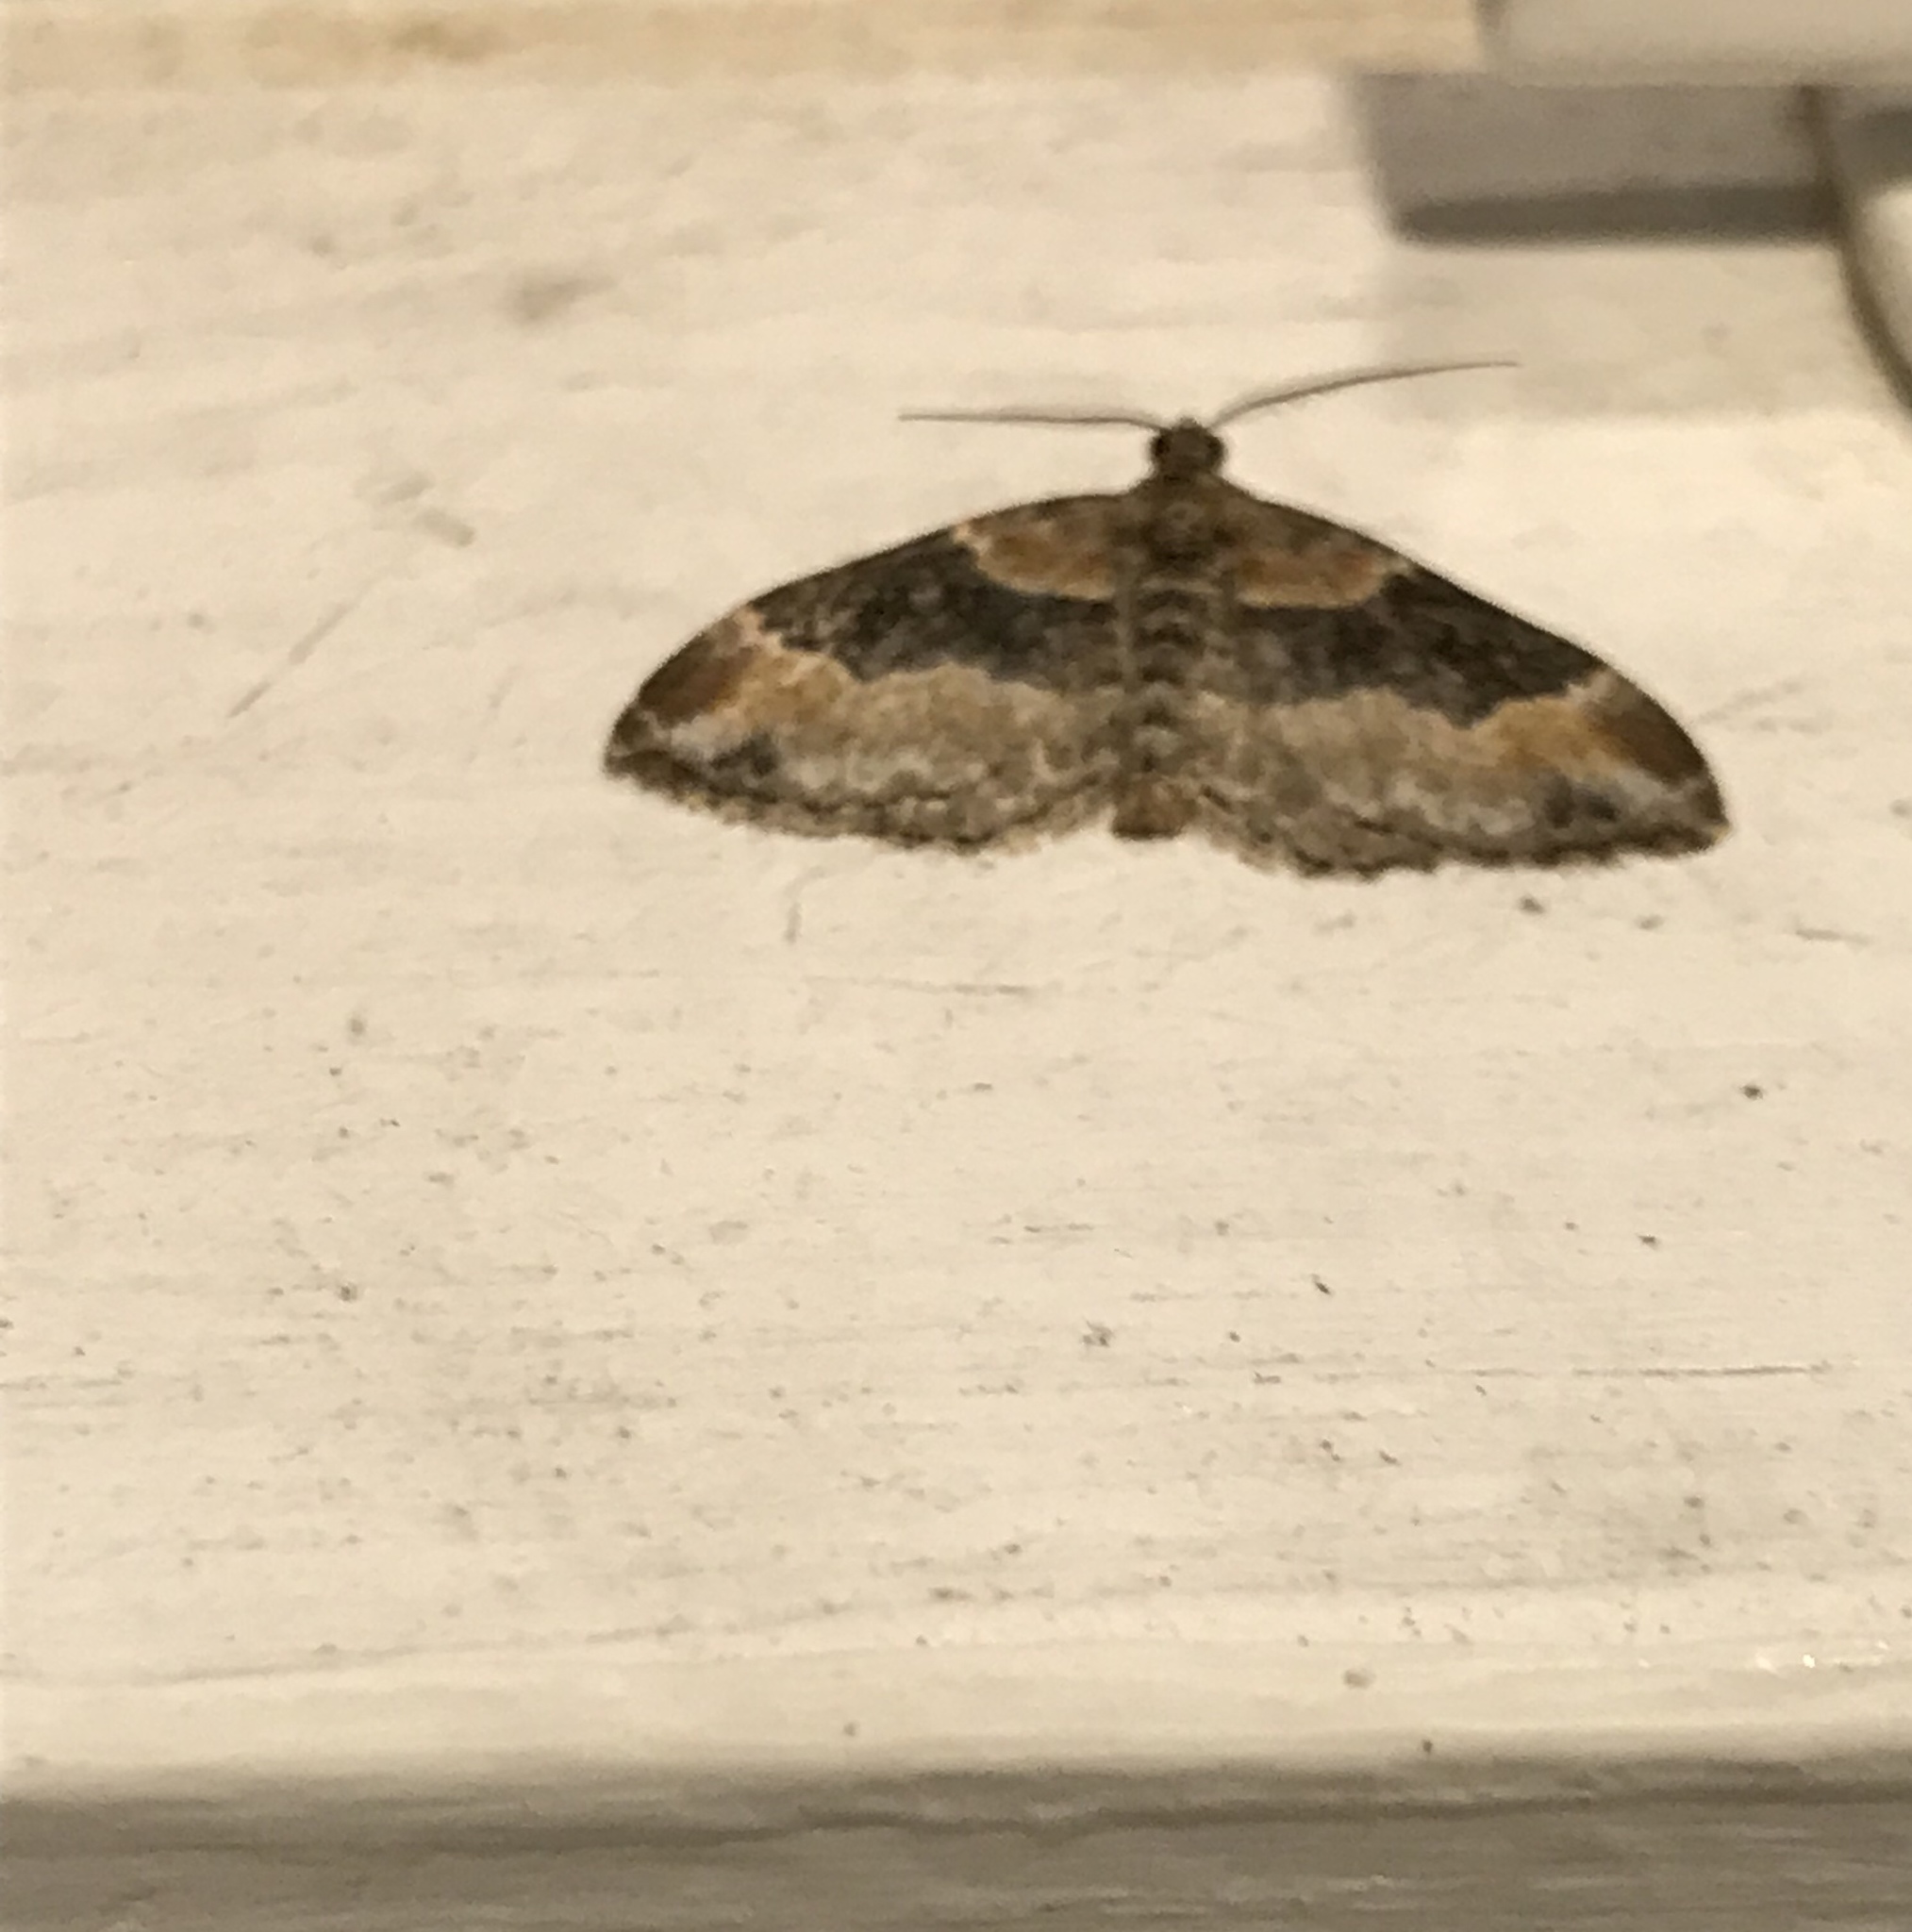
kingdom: Animalia
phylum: Arthropoda
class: Insecta
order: Lepidoptera
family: Geometridae
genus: Xanthorhoe
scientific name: Xanthorhoe ferrugata
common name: Dark-barred twin-spot carpet
